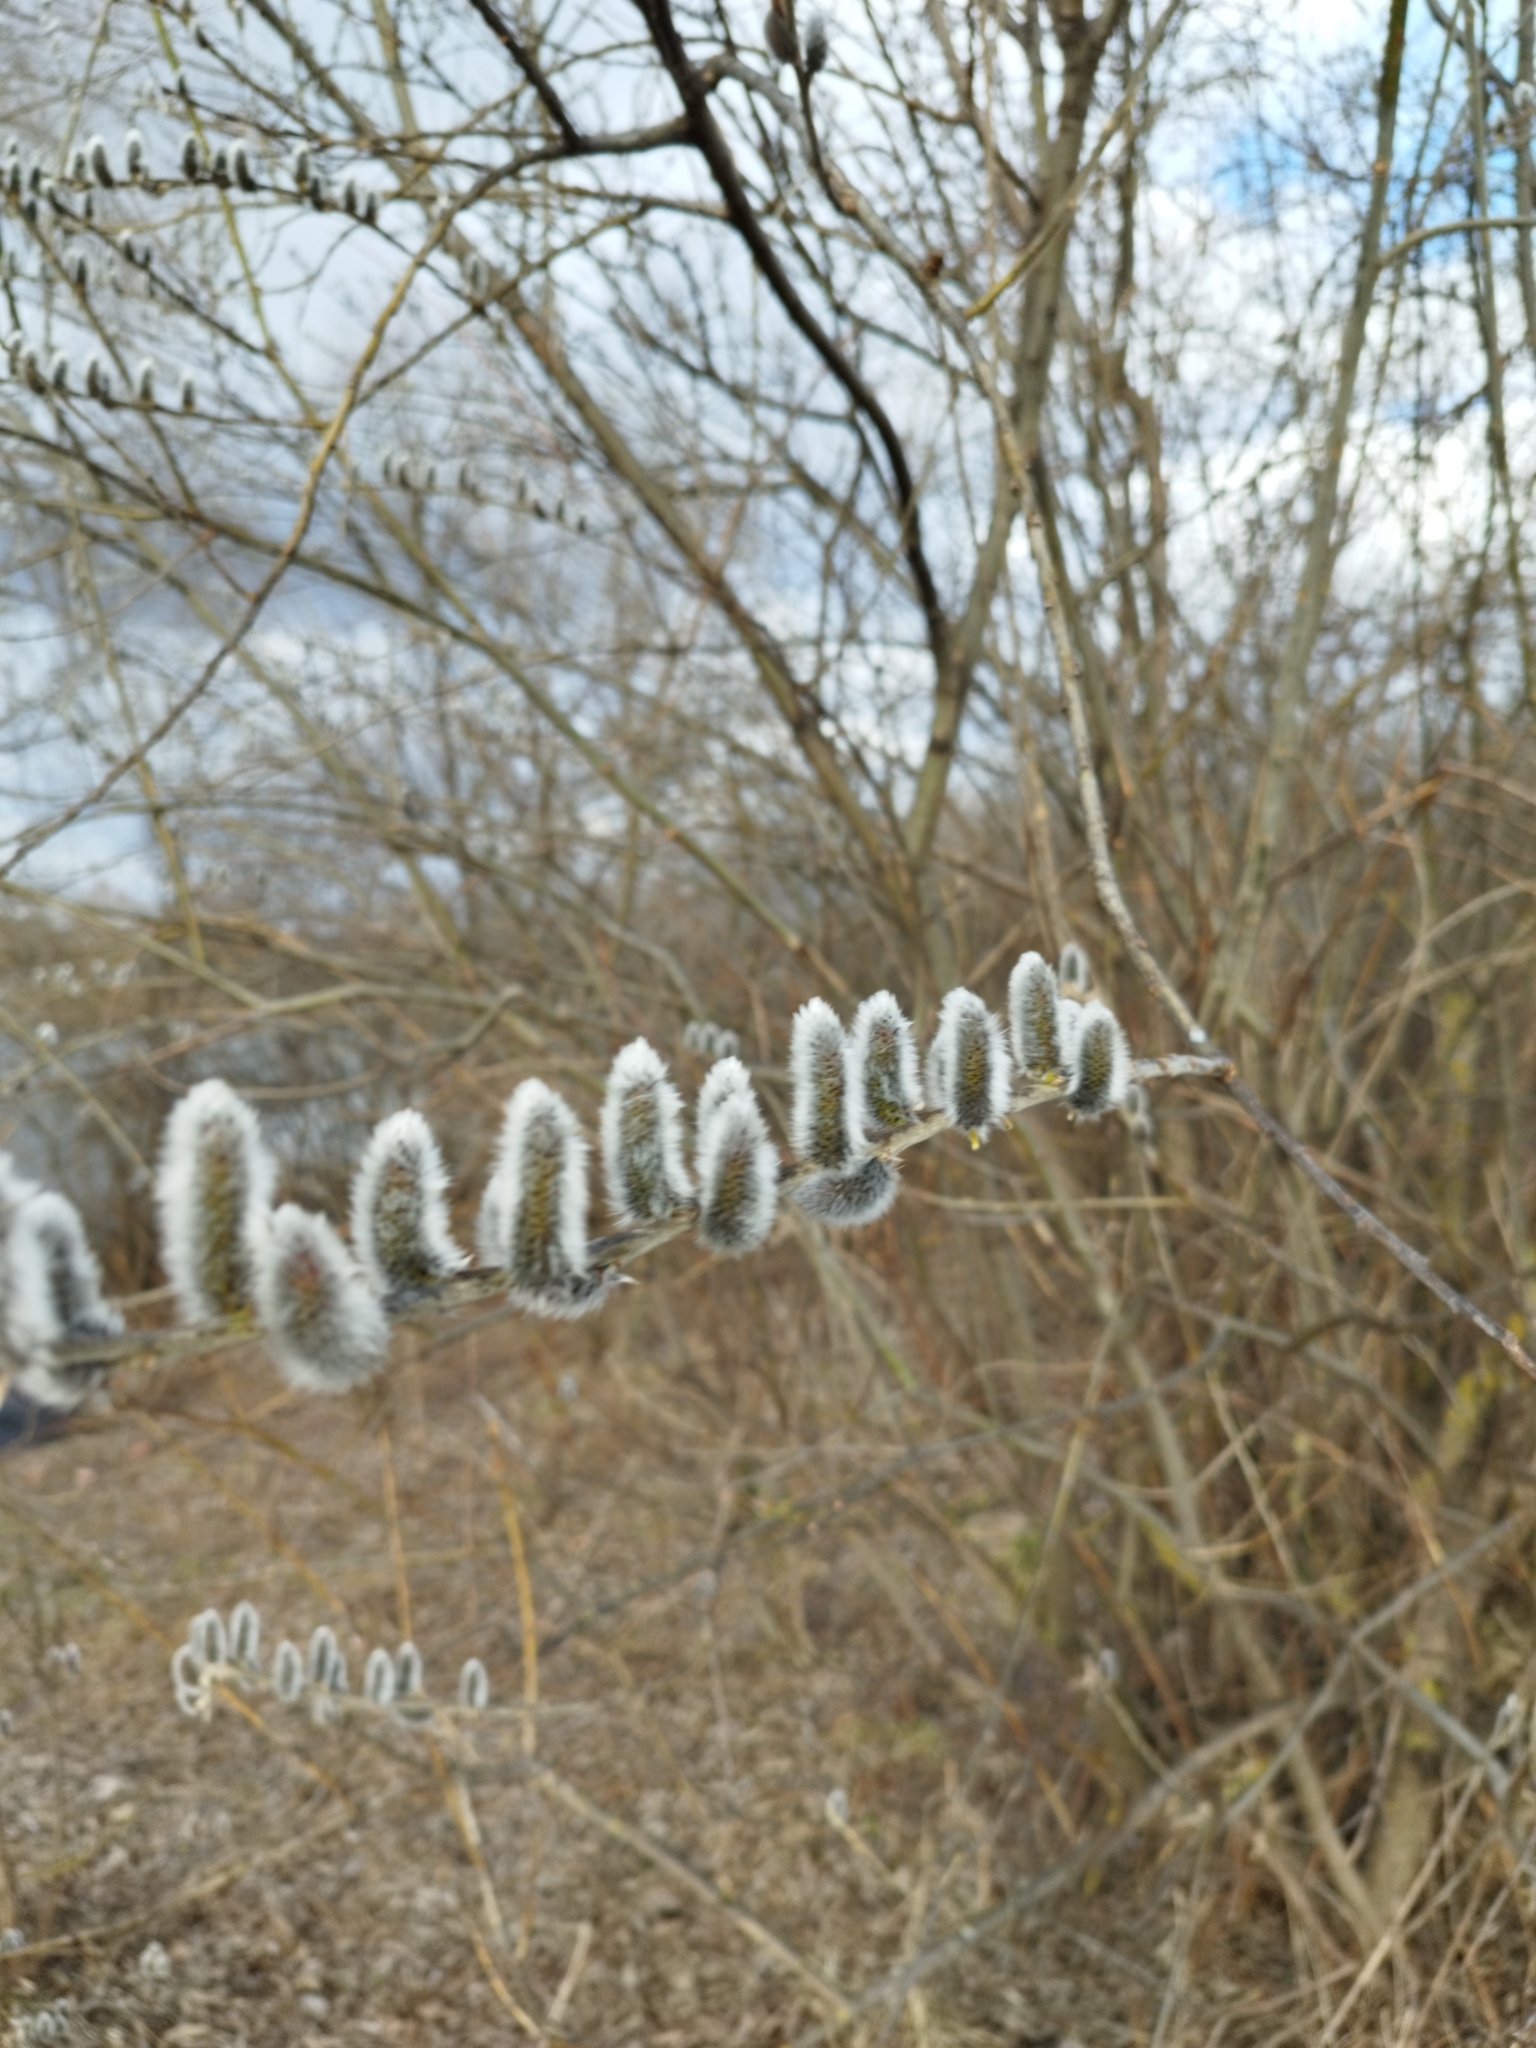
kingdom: Plantae
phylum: Tracheophyta
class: Magnoliopsida
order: Malpighiales
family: Salicaceae
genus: Salix
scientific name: Salix caprea
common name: Goat willow
